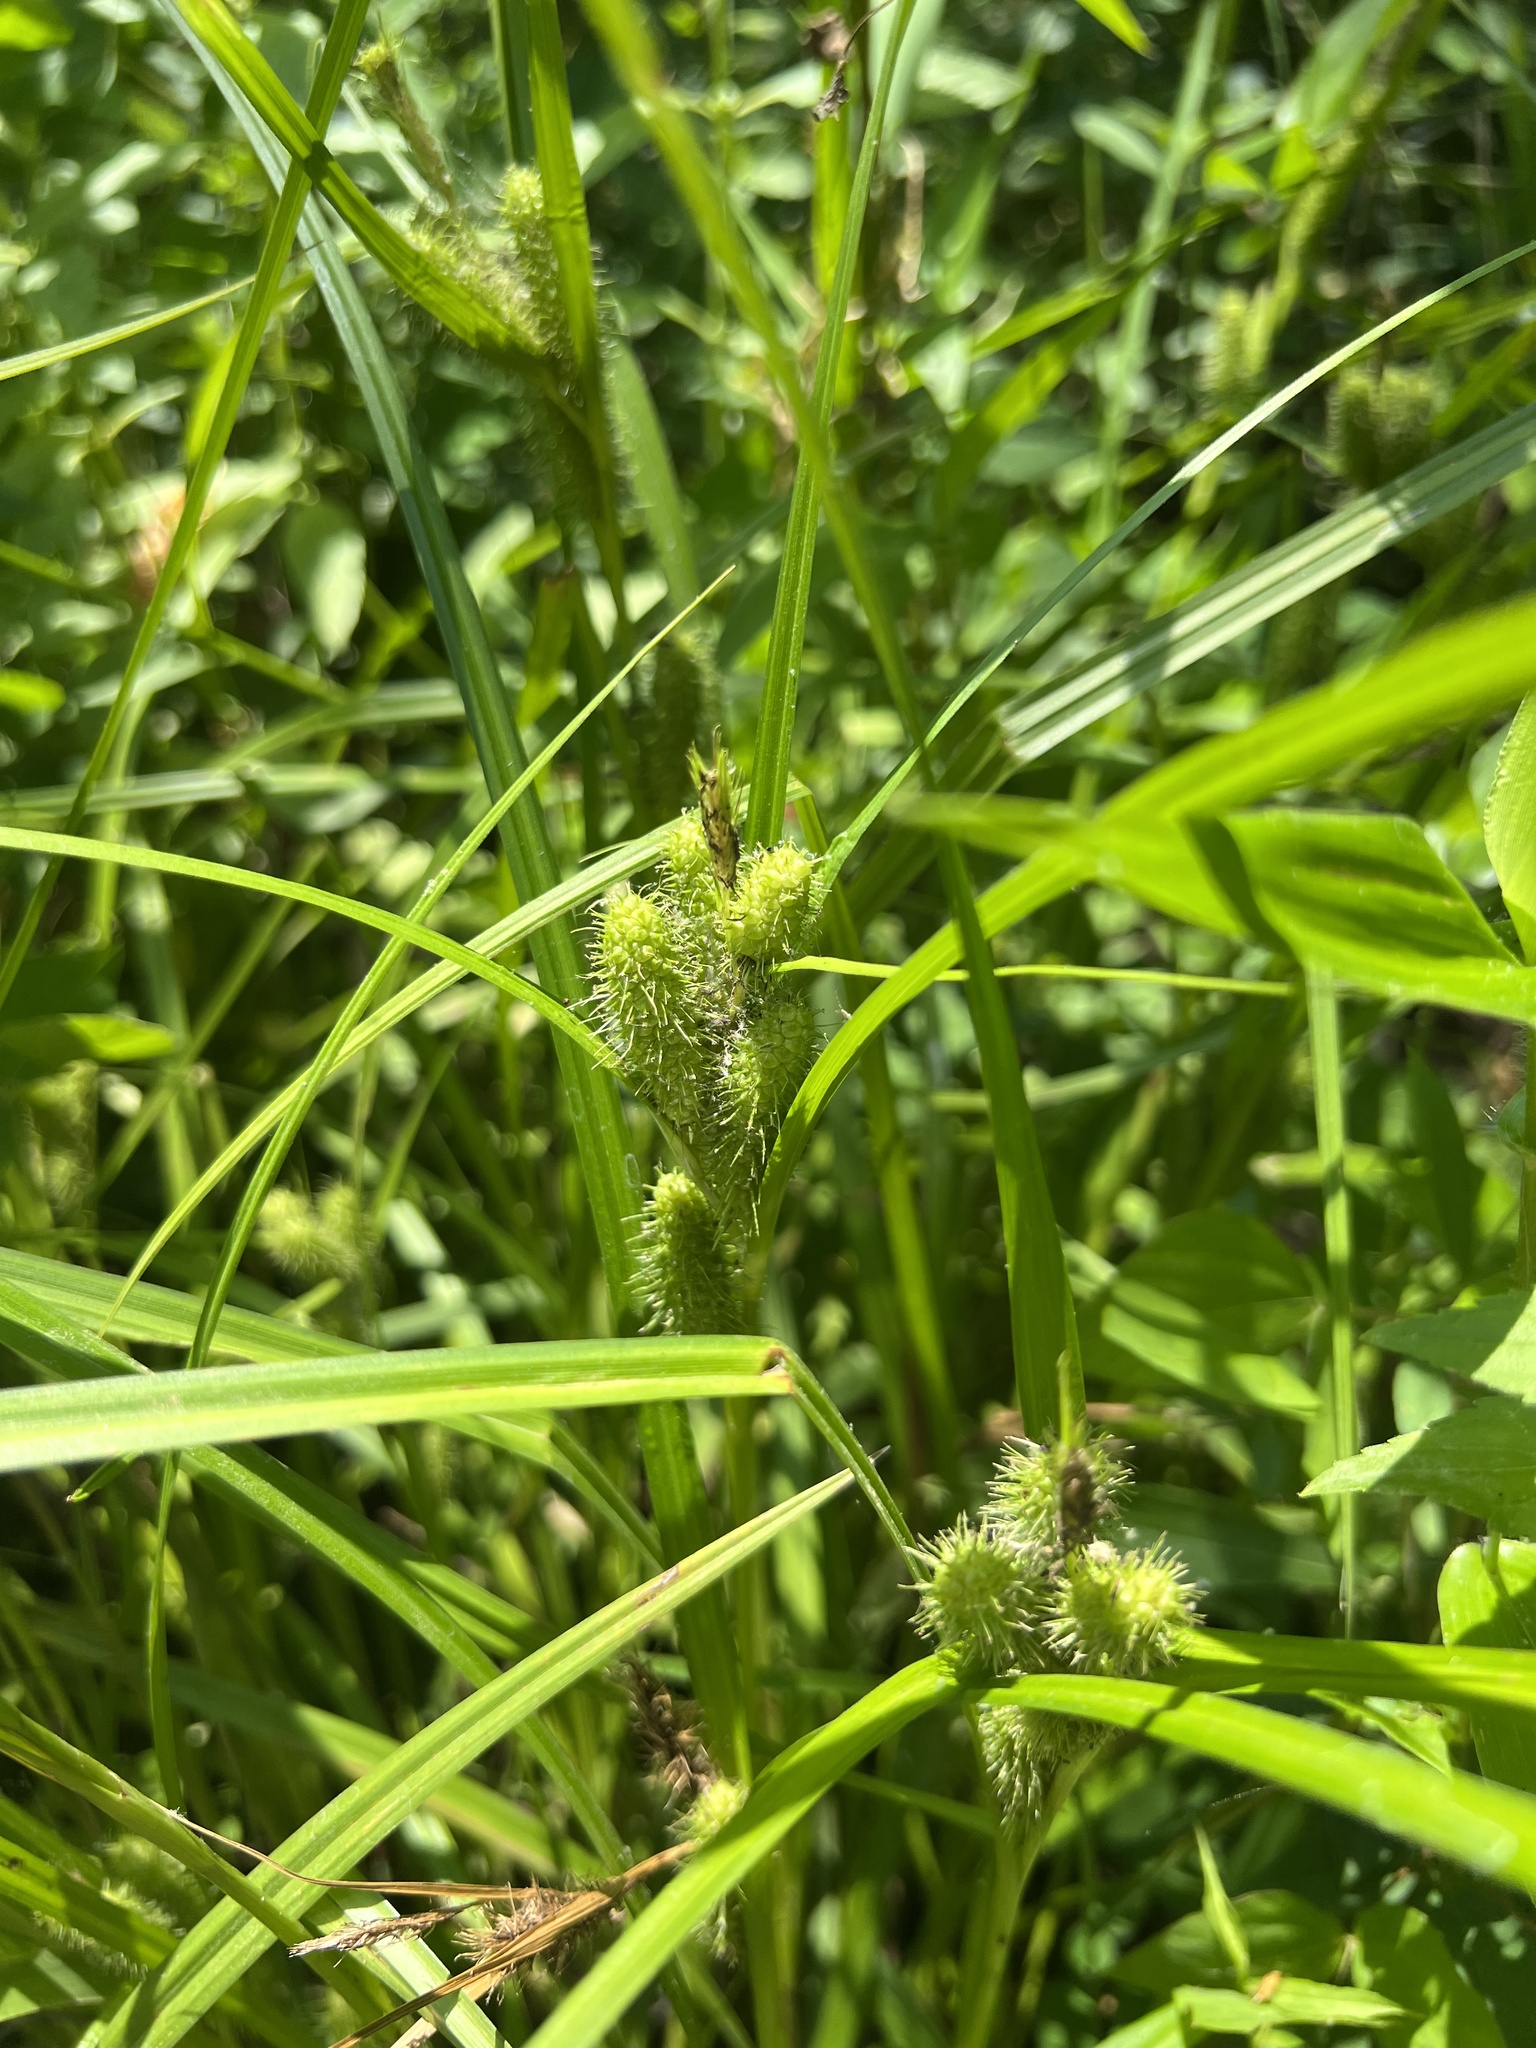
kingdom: Plantae
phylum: Tracheophyta
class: Liliopsida
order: Poales
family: Cyperaceae
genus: Carex
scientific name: Carex frankii
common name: Frank's sedge
